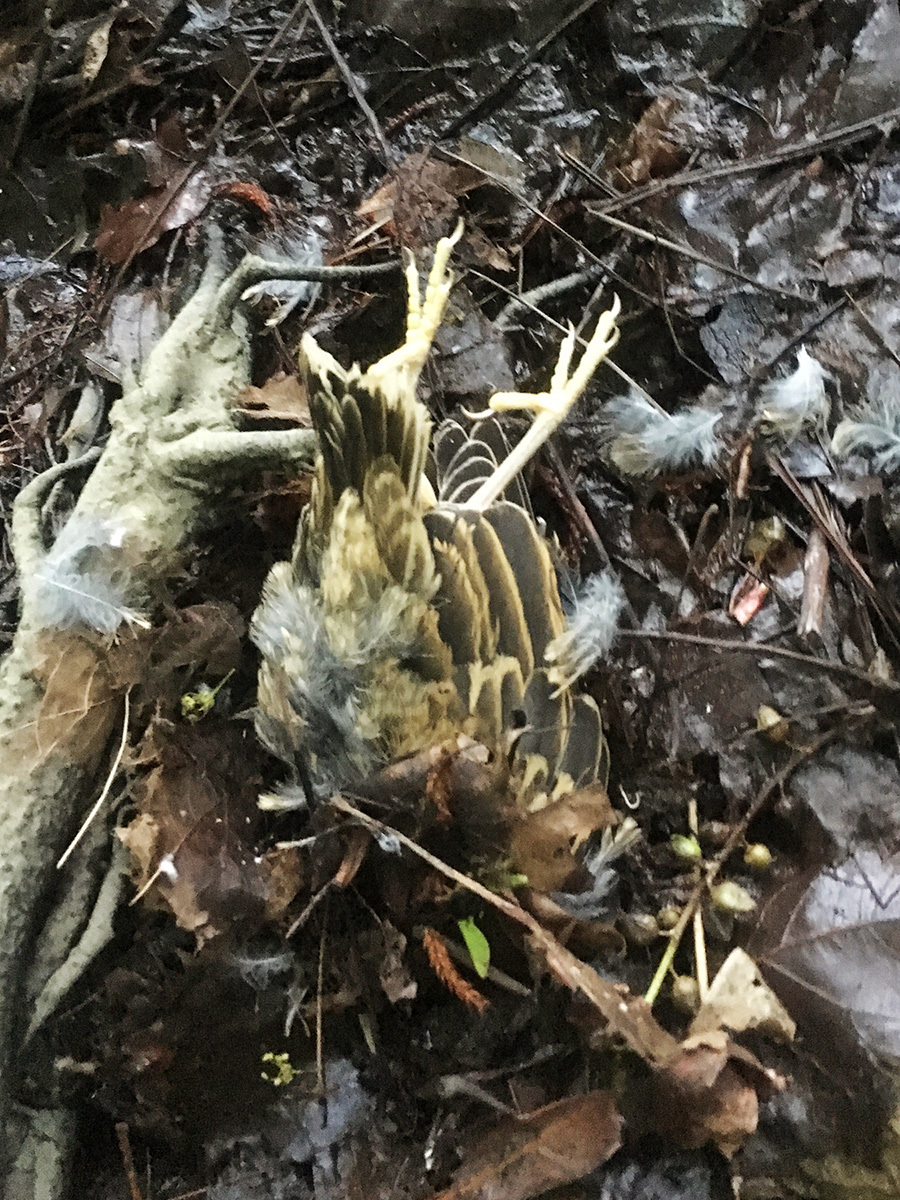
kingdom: Animalia
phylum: Chordata
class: Aves
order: Passeriformes
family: Turdidae
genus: Turdus
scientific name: Turdus viscivorus
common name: Mistle thrush
